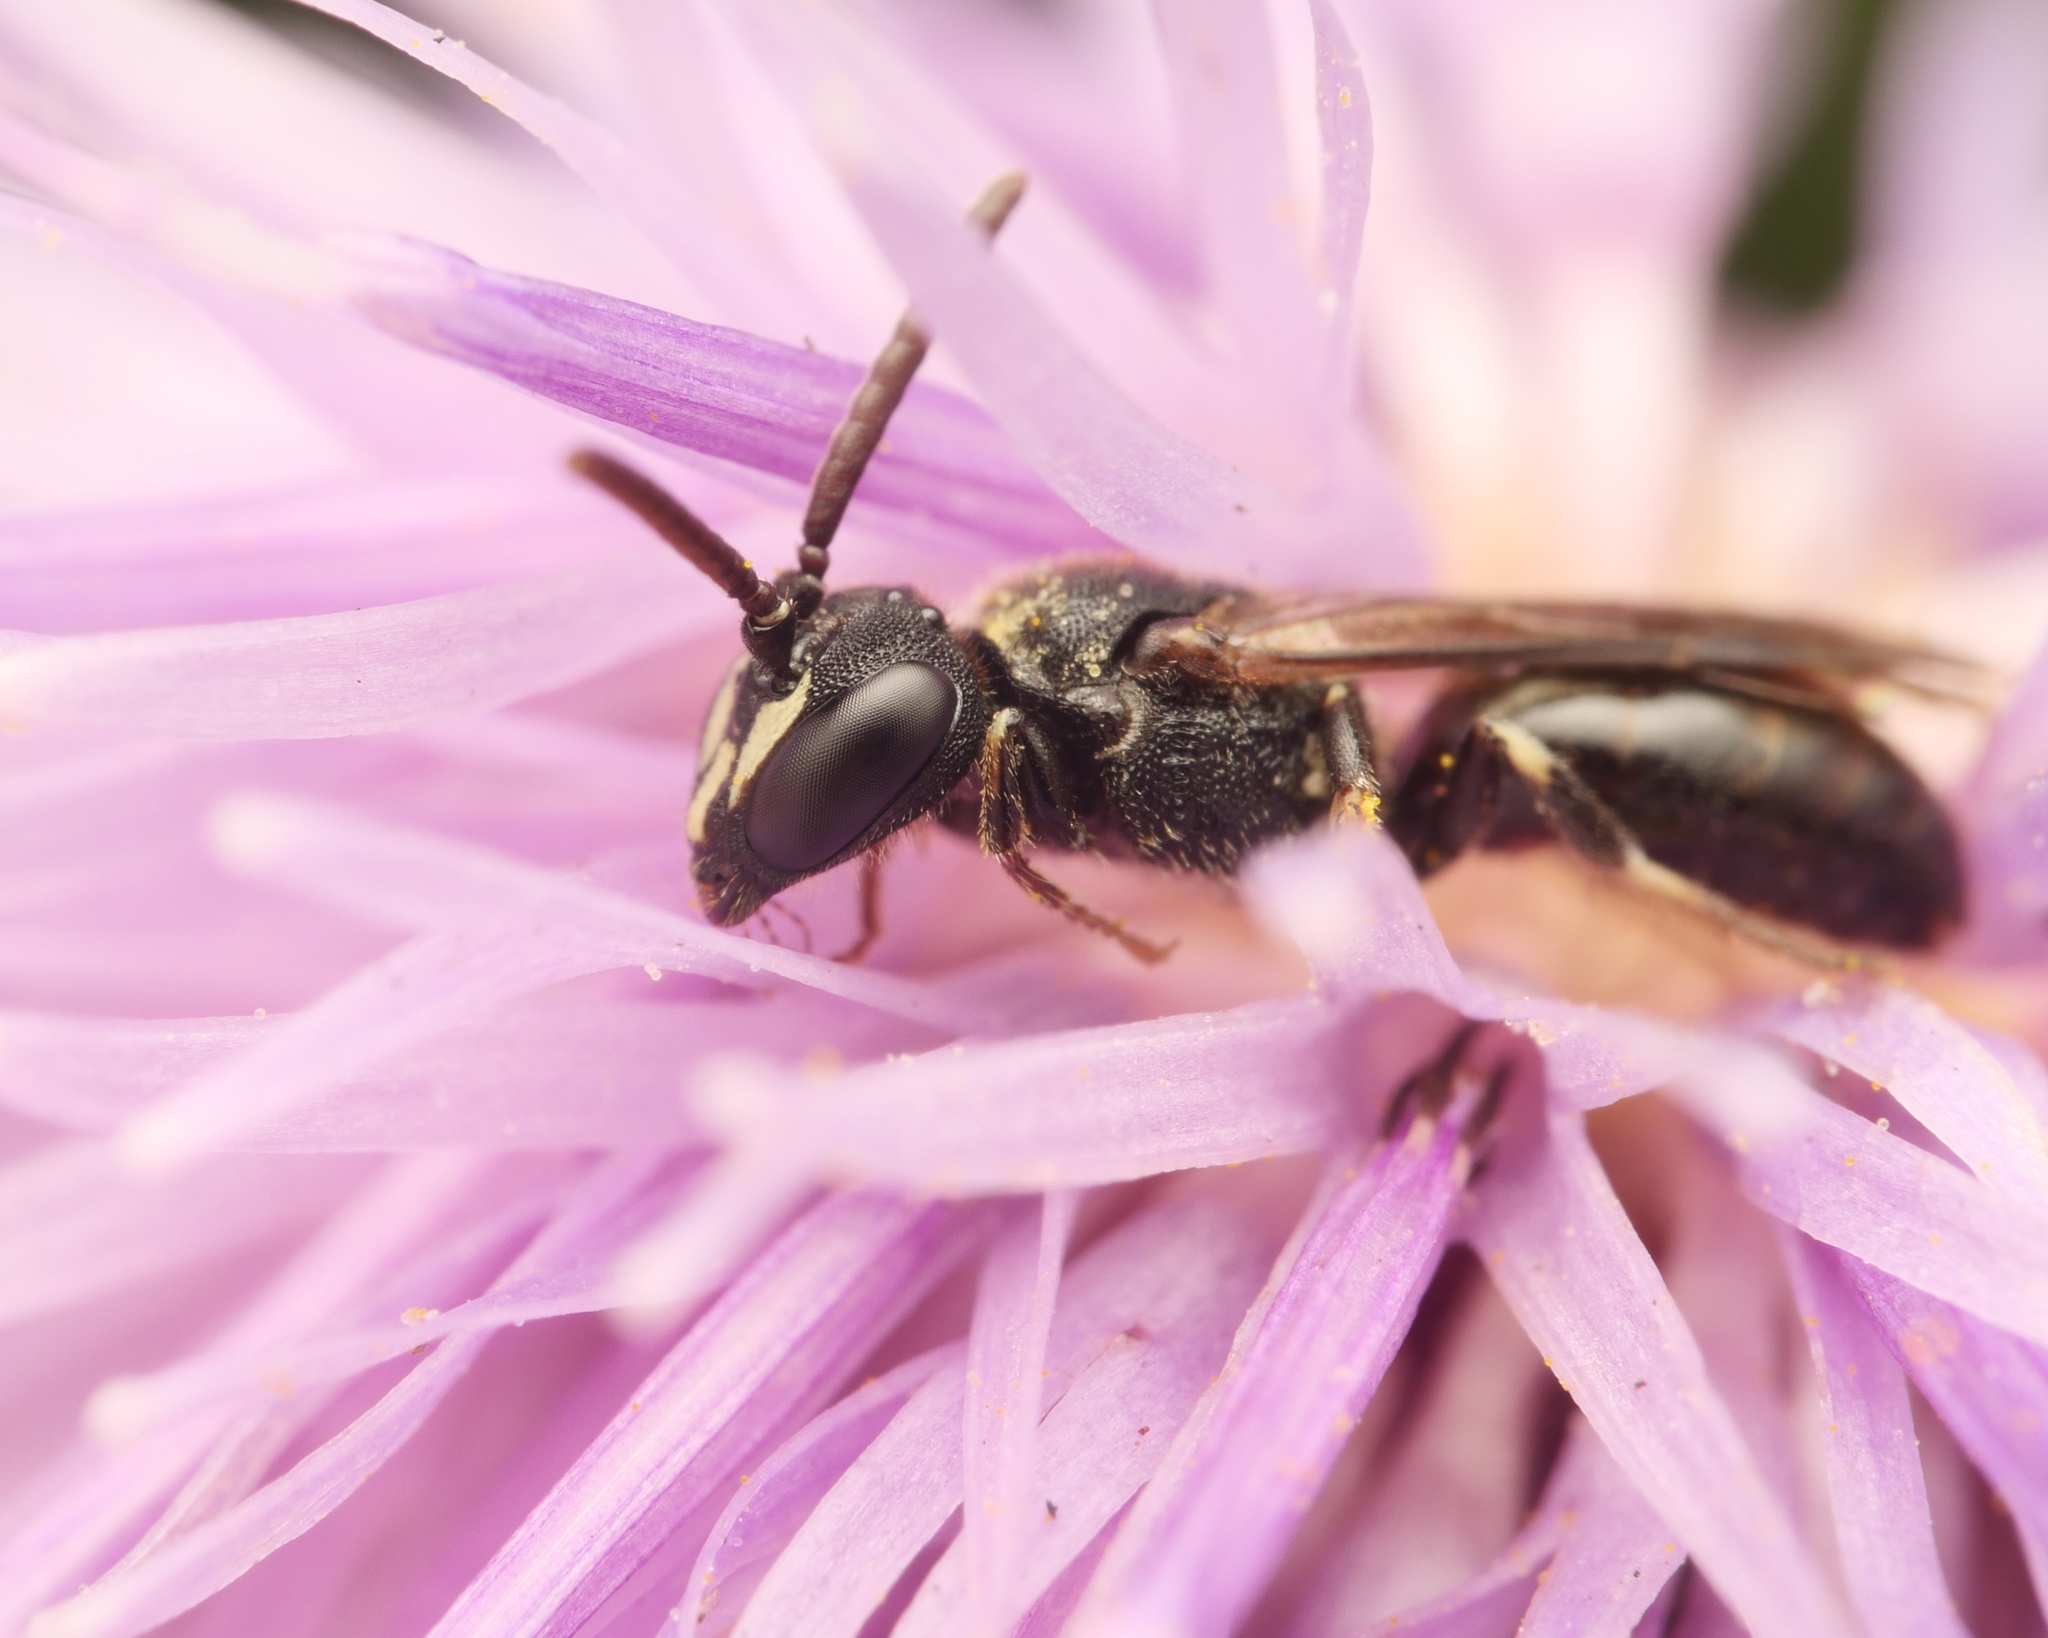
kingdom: Animalia
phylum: Arthropoda
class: Insecta
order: Hymenoptera
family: Colletidae
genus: Hylaeus
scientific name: Hylaeus communis
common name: Common yellow-face bee
